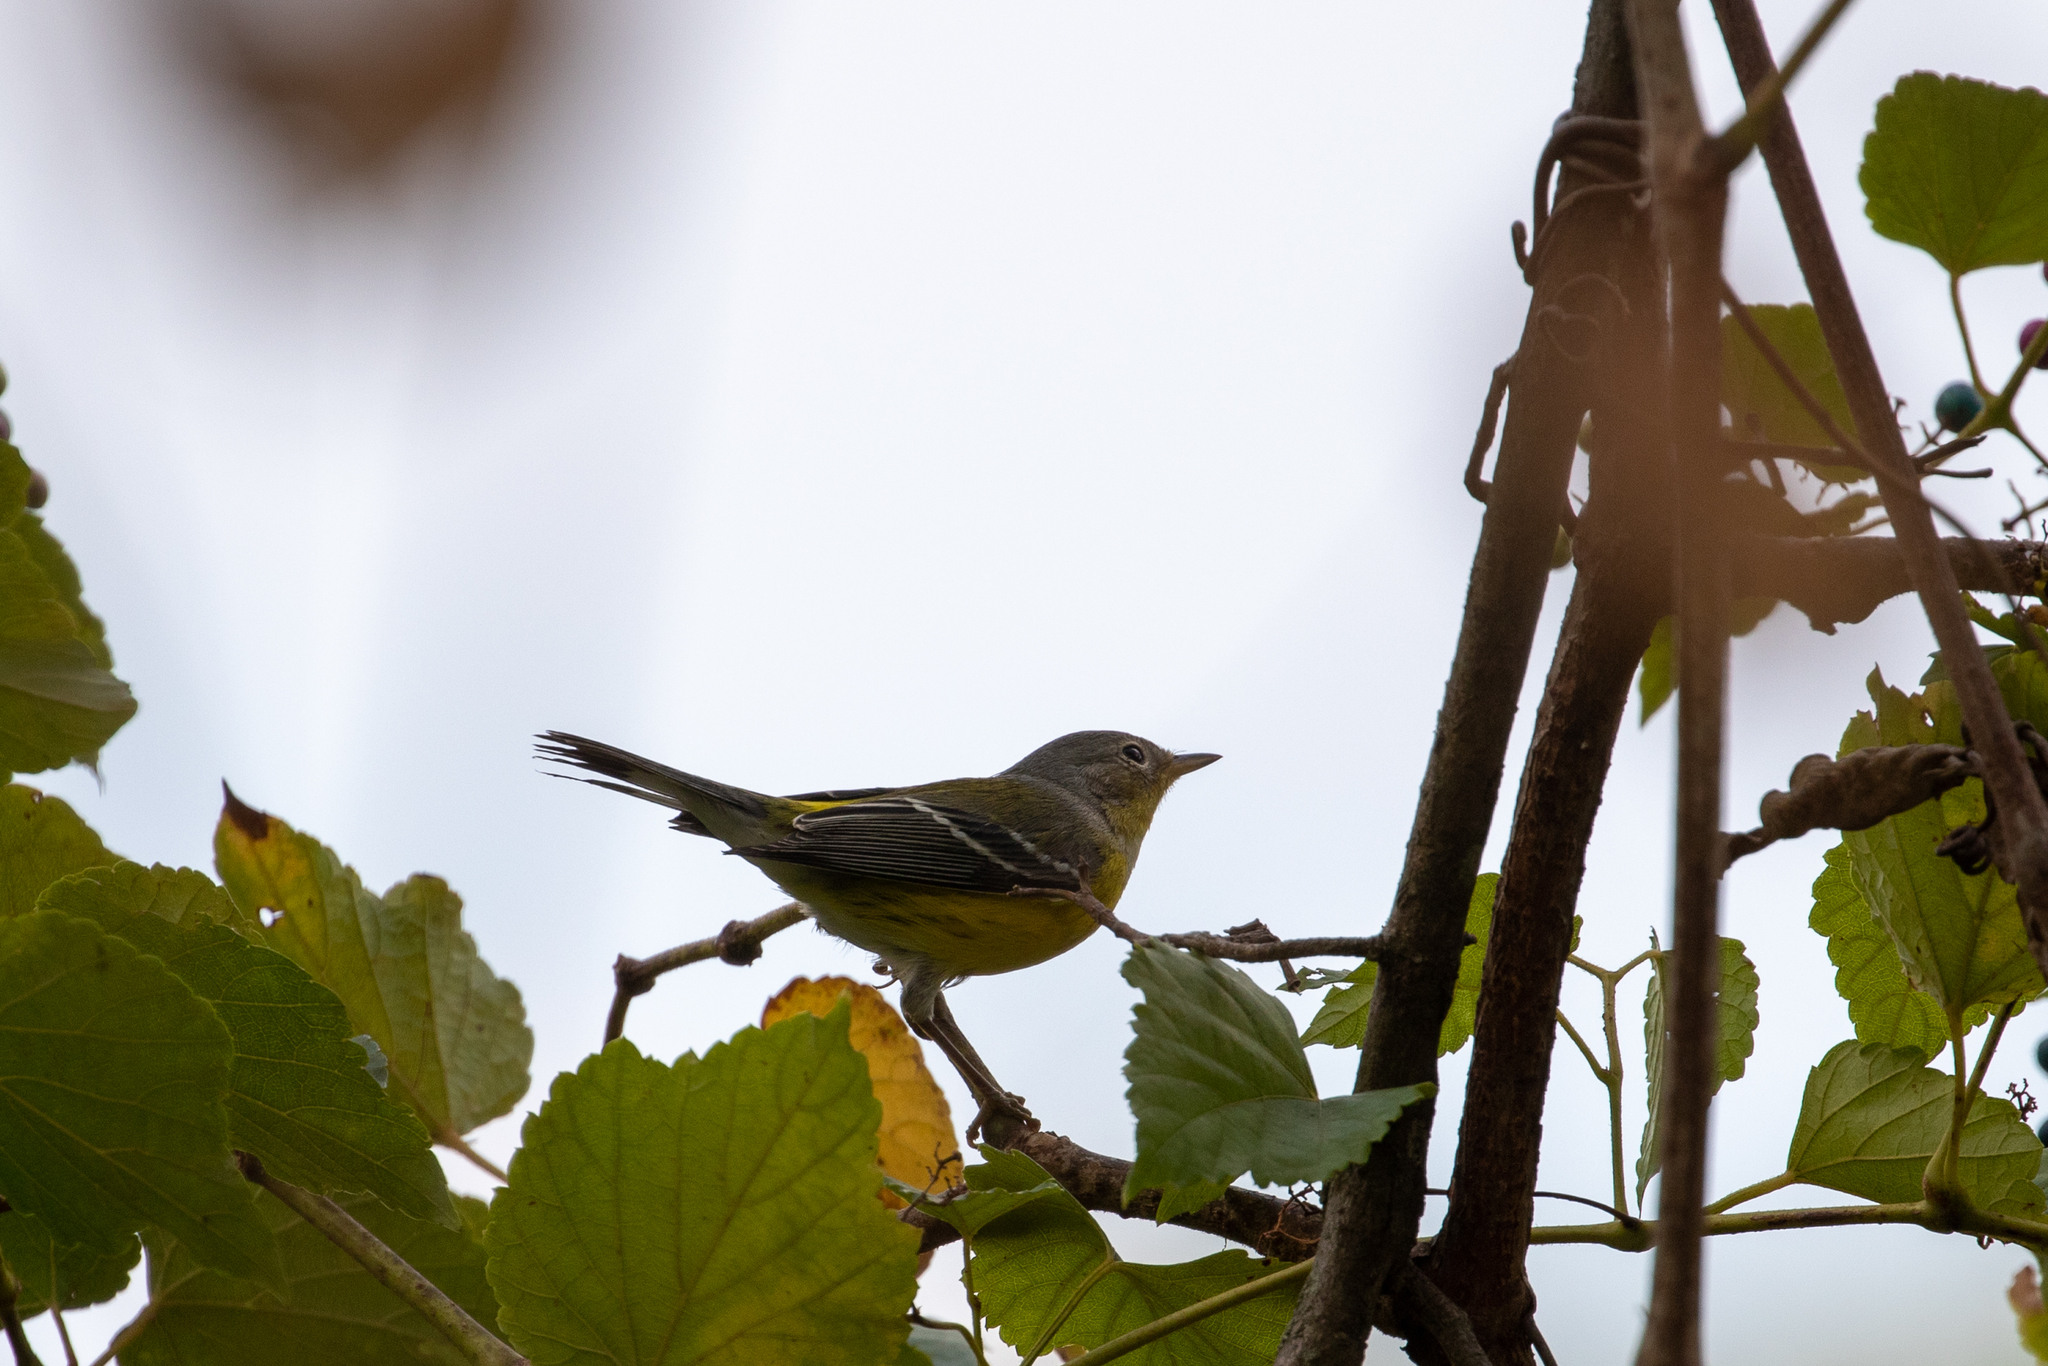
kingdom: Animalia
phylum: Chordata
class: Aves
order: Passeriformes
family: Parulidae
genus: Setophaga
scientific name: Setophaga magnolia
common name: Magnolia warbler
